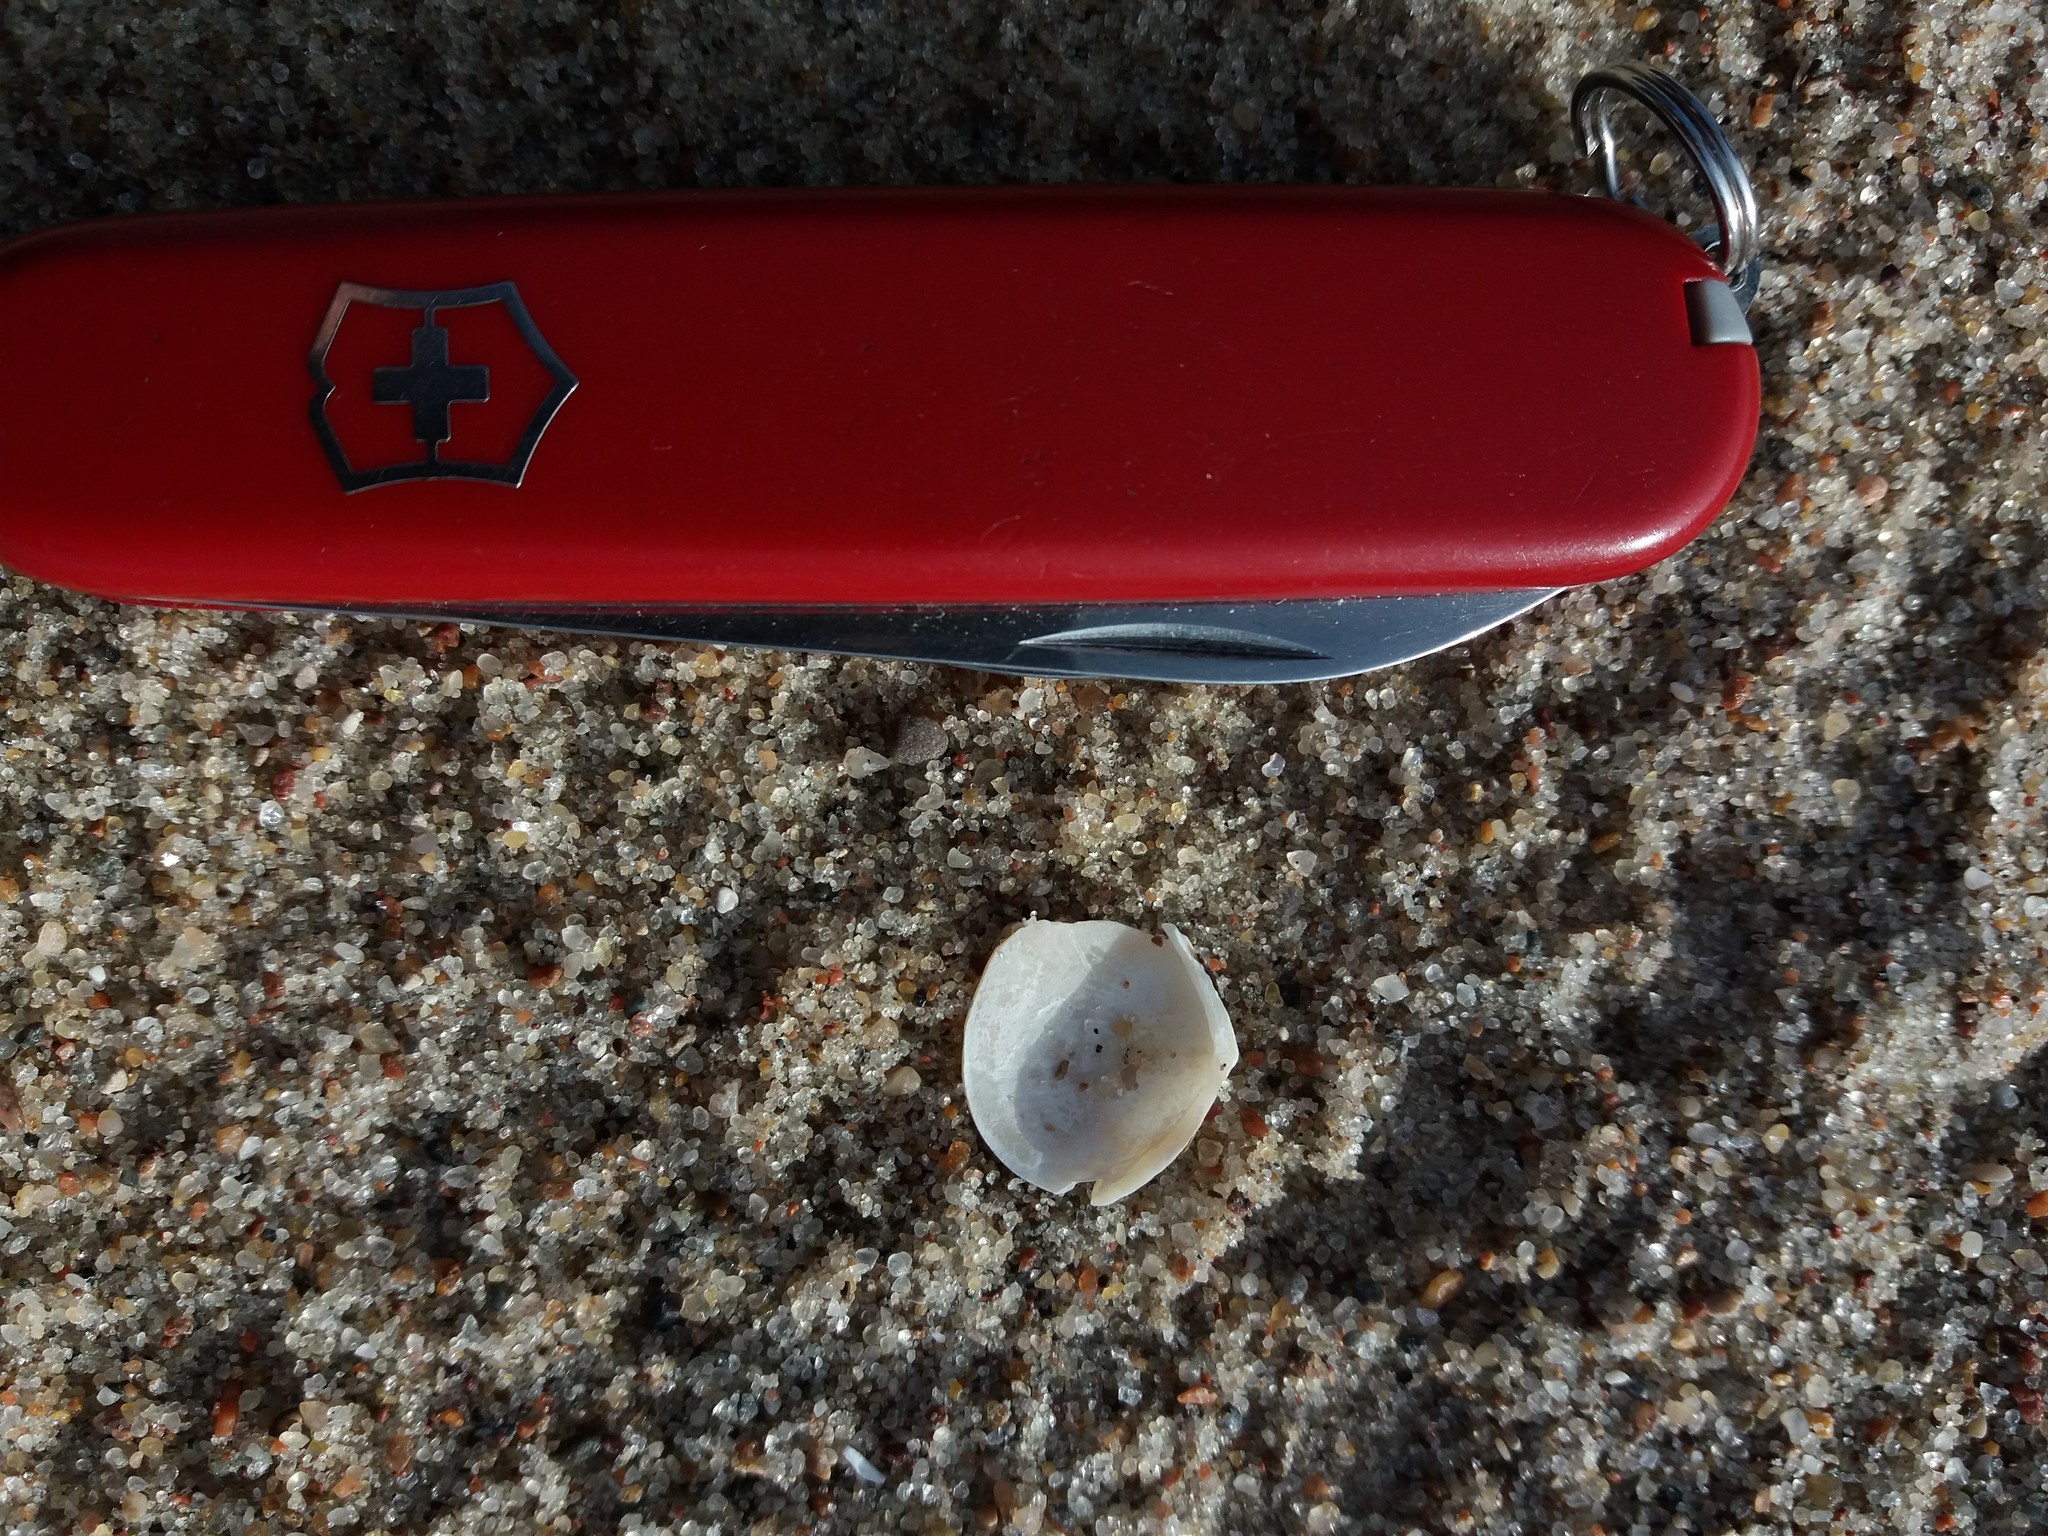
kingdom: Animalia
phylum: Mollusca
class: Bivalvia
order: Cardiida
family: Tellinidae
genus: Macoma
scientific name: Macoma balthica
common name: Baltic tellin
